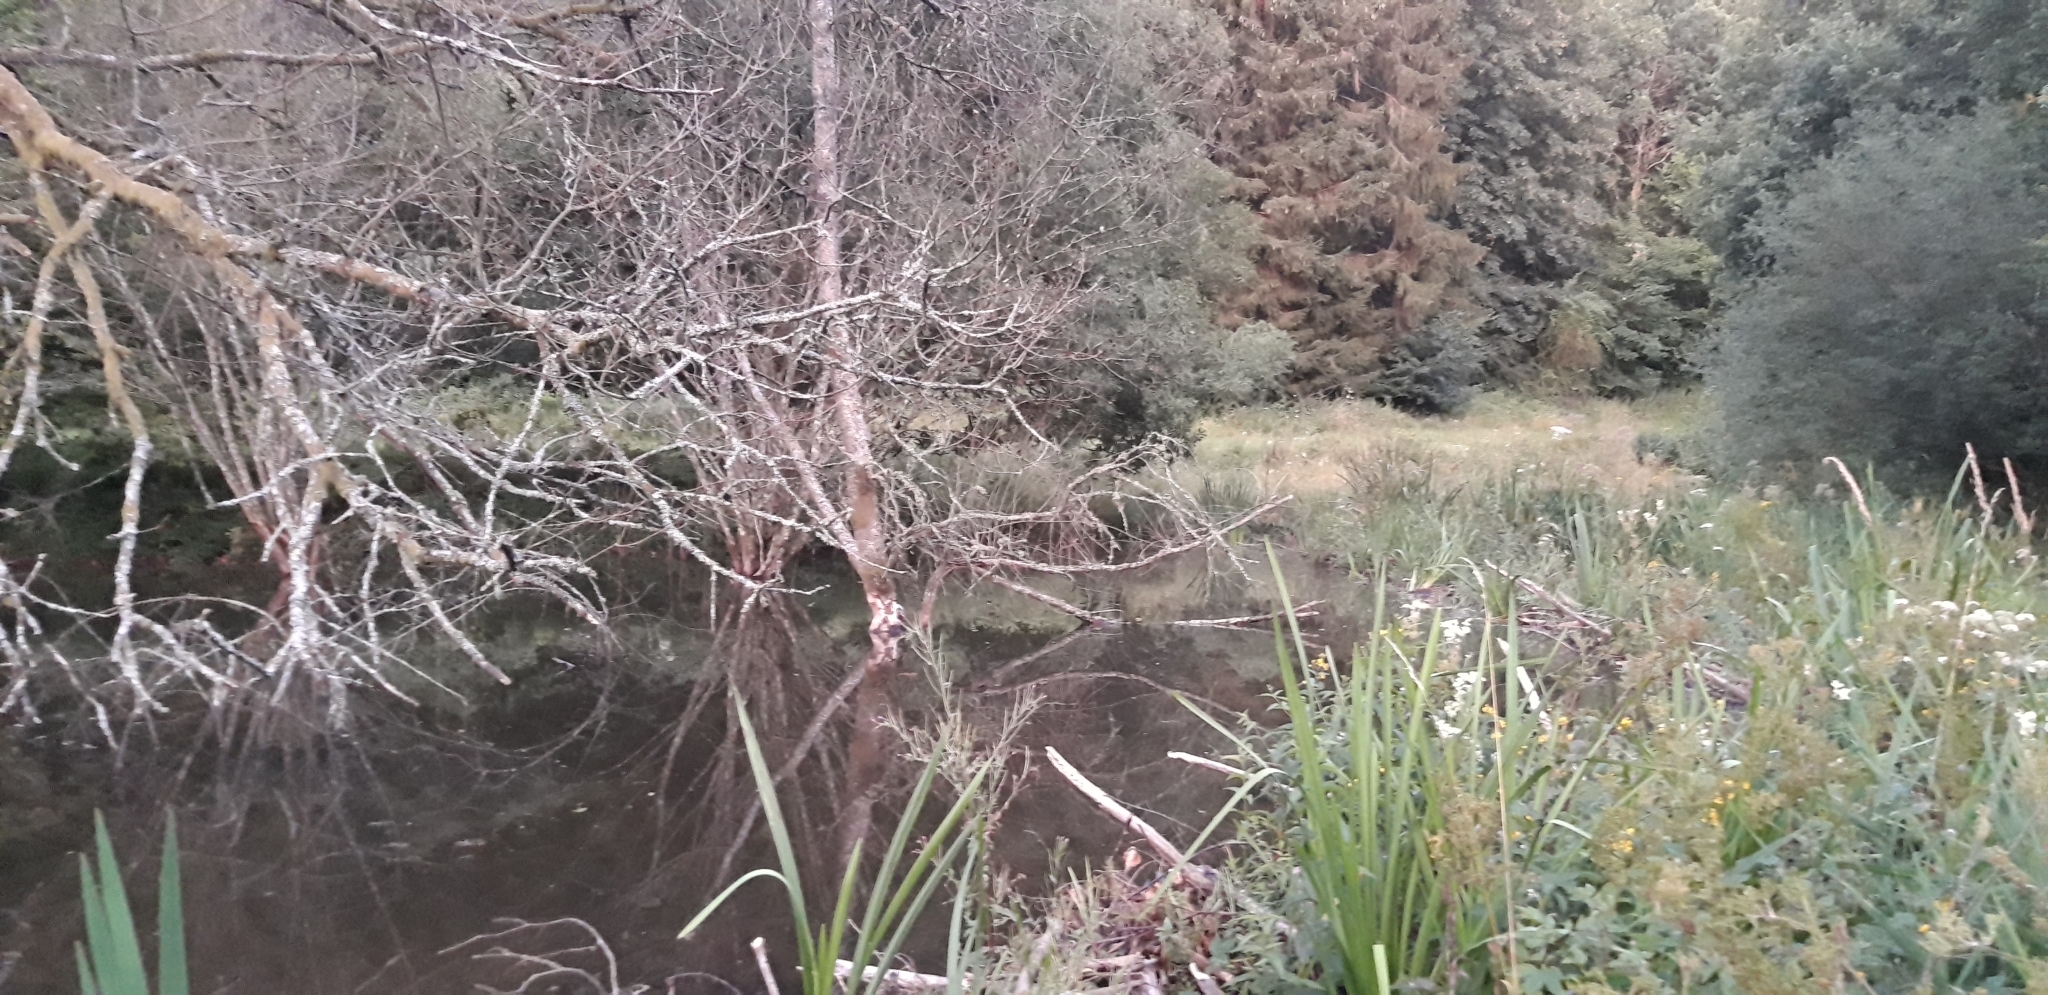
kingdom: Animalia
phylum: Chordata
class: Mammalia
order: Rodentia
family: Castoridae
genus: Castor
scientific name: Castor fiber
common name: Eurasian beaver
